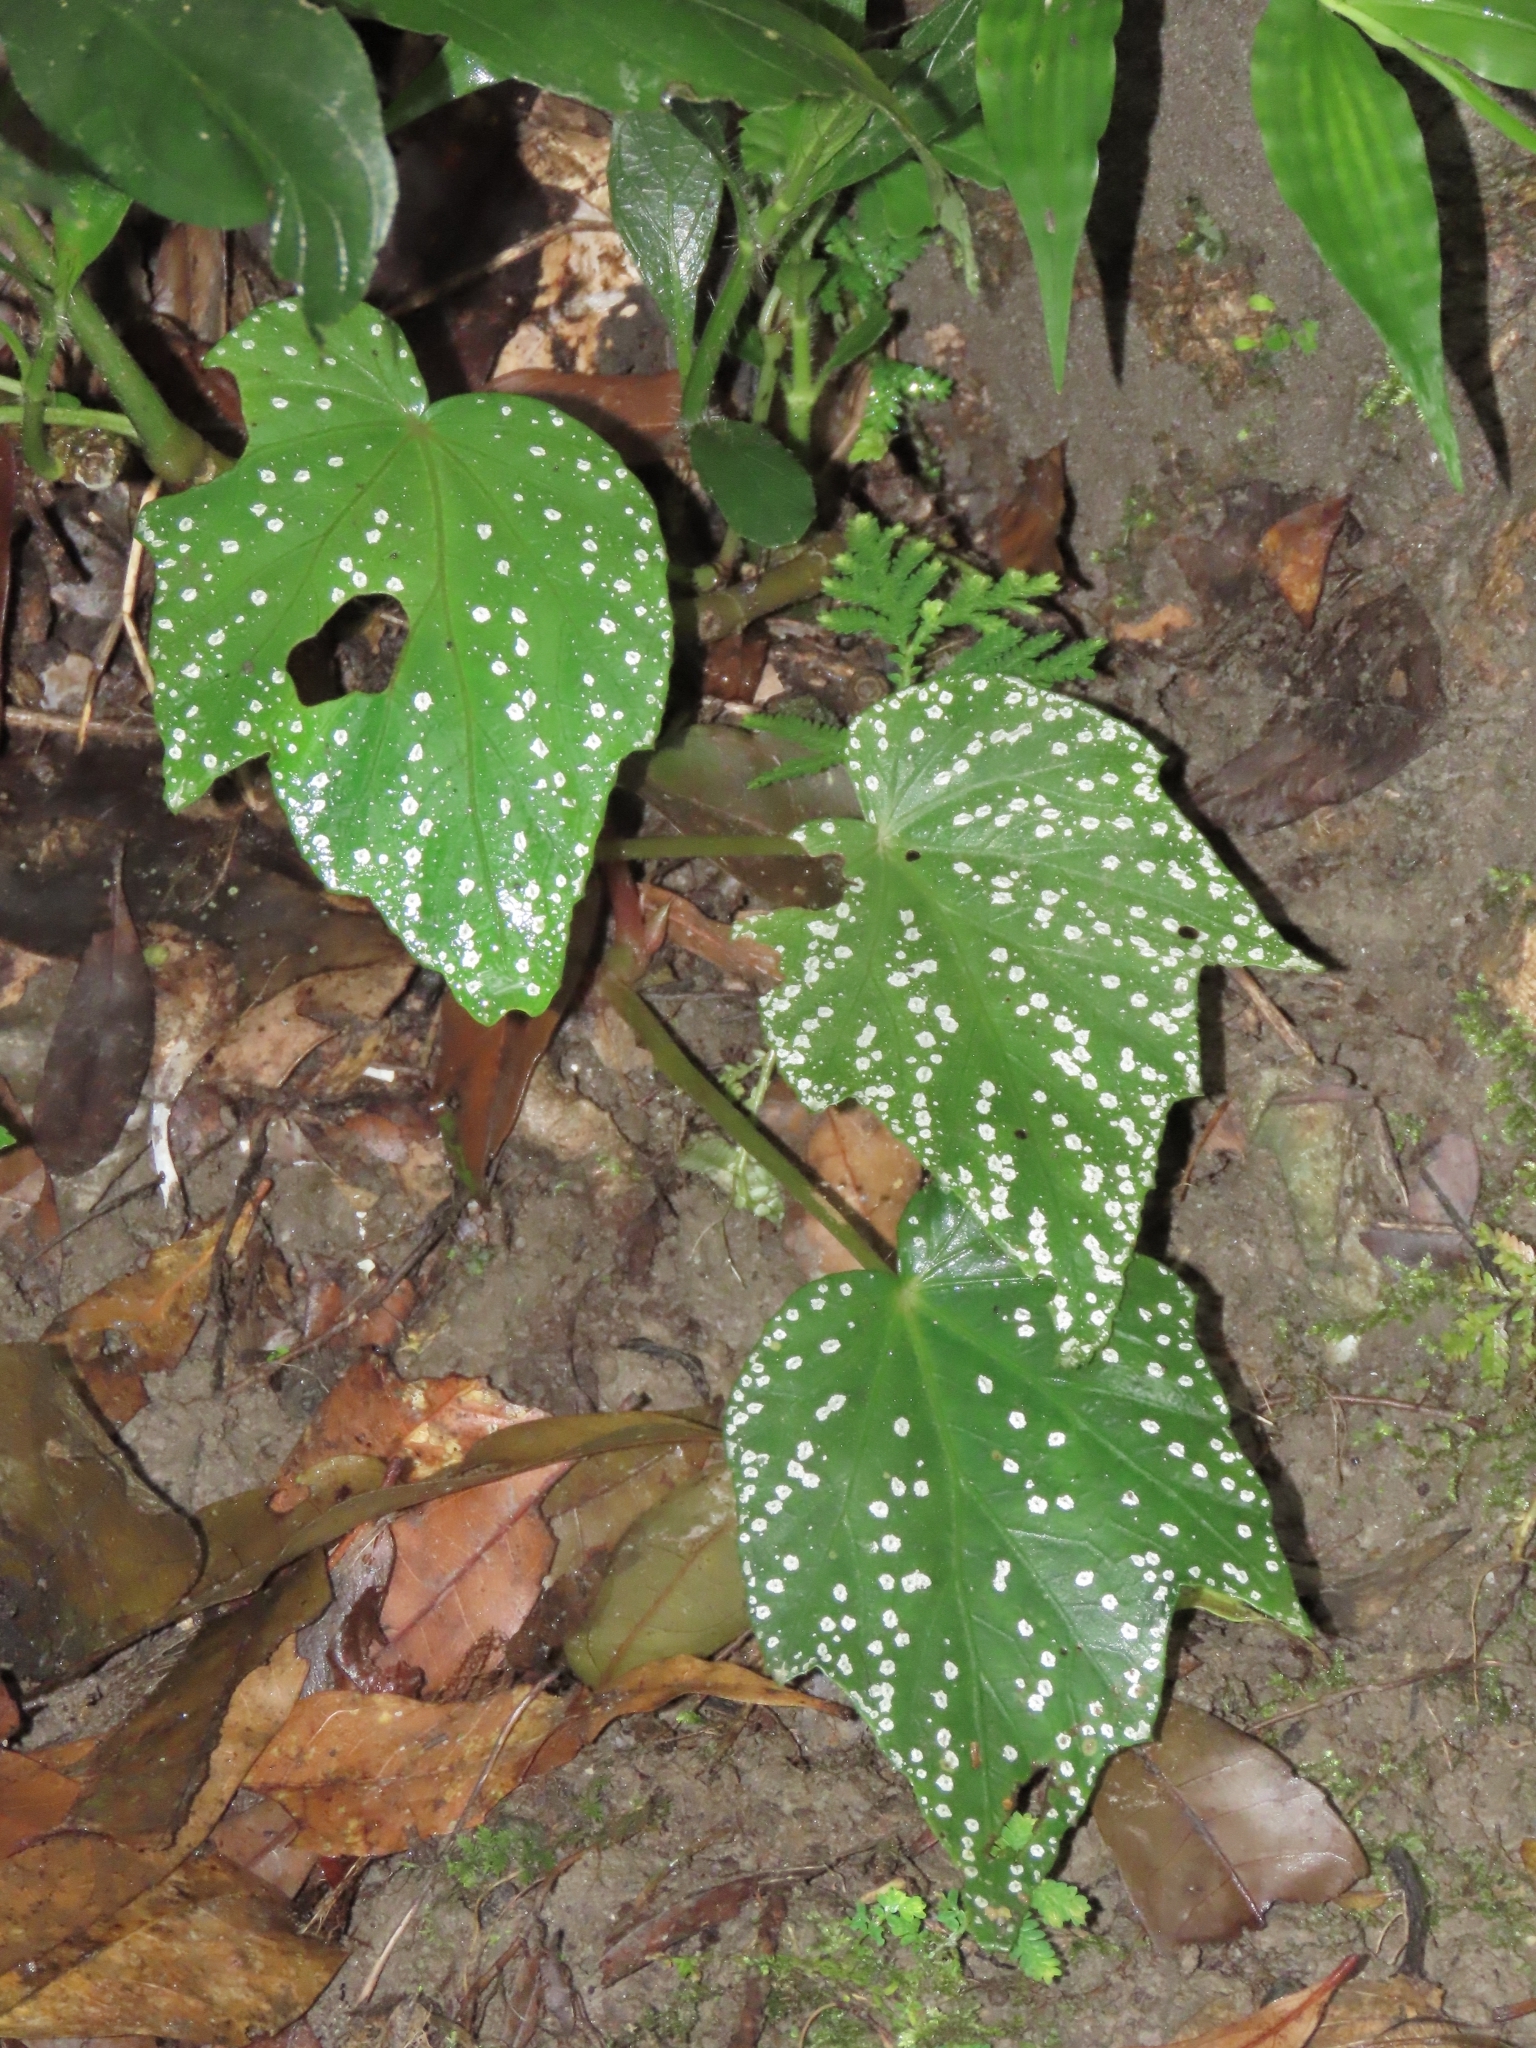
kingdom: Plantae
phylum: Tracheophyta
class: Magnoliopsida
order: Cucurbitales
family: Begoniaceae
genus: Begonia
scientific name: Begonia formosana
